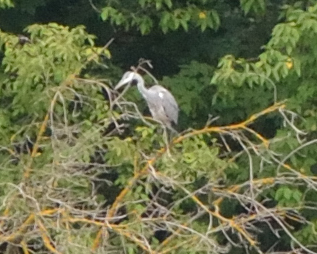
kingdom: Animalia
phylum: Chordata
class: Aves
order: Pelecaniformes
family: Ardeidae
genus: Ardea
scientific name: Ardea cinerea
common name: Grey heron
